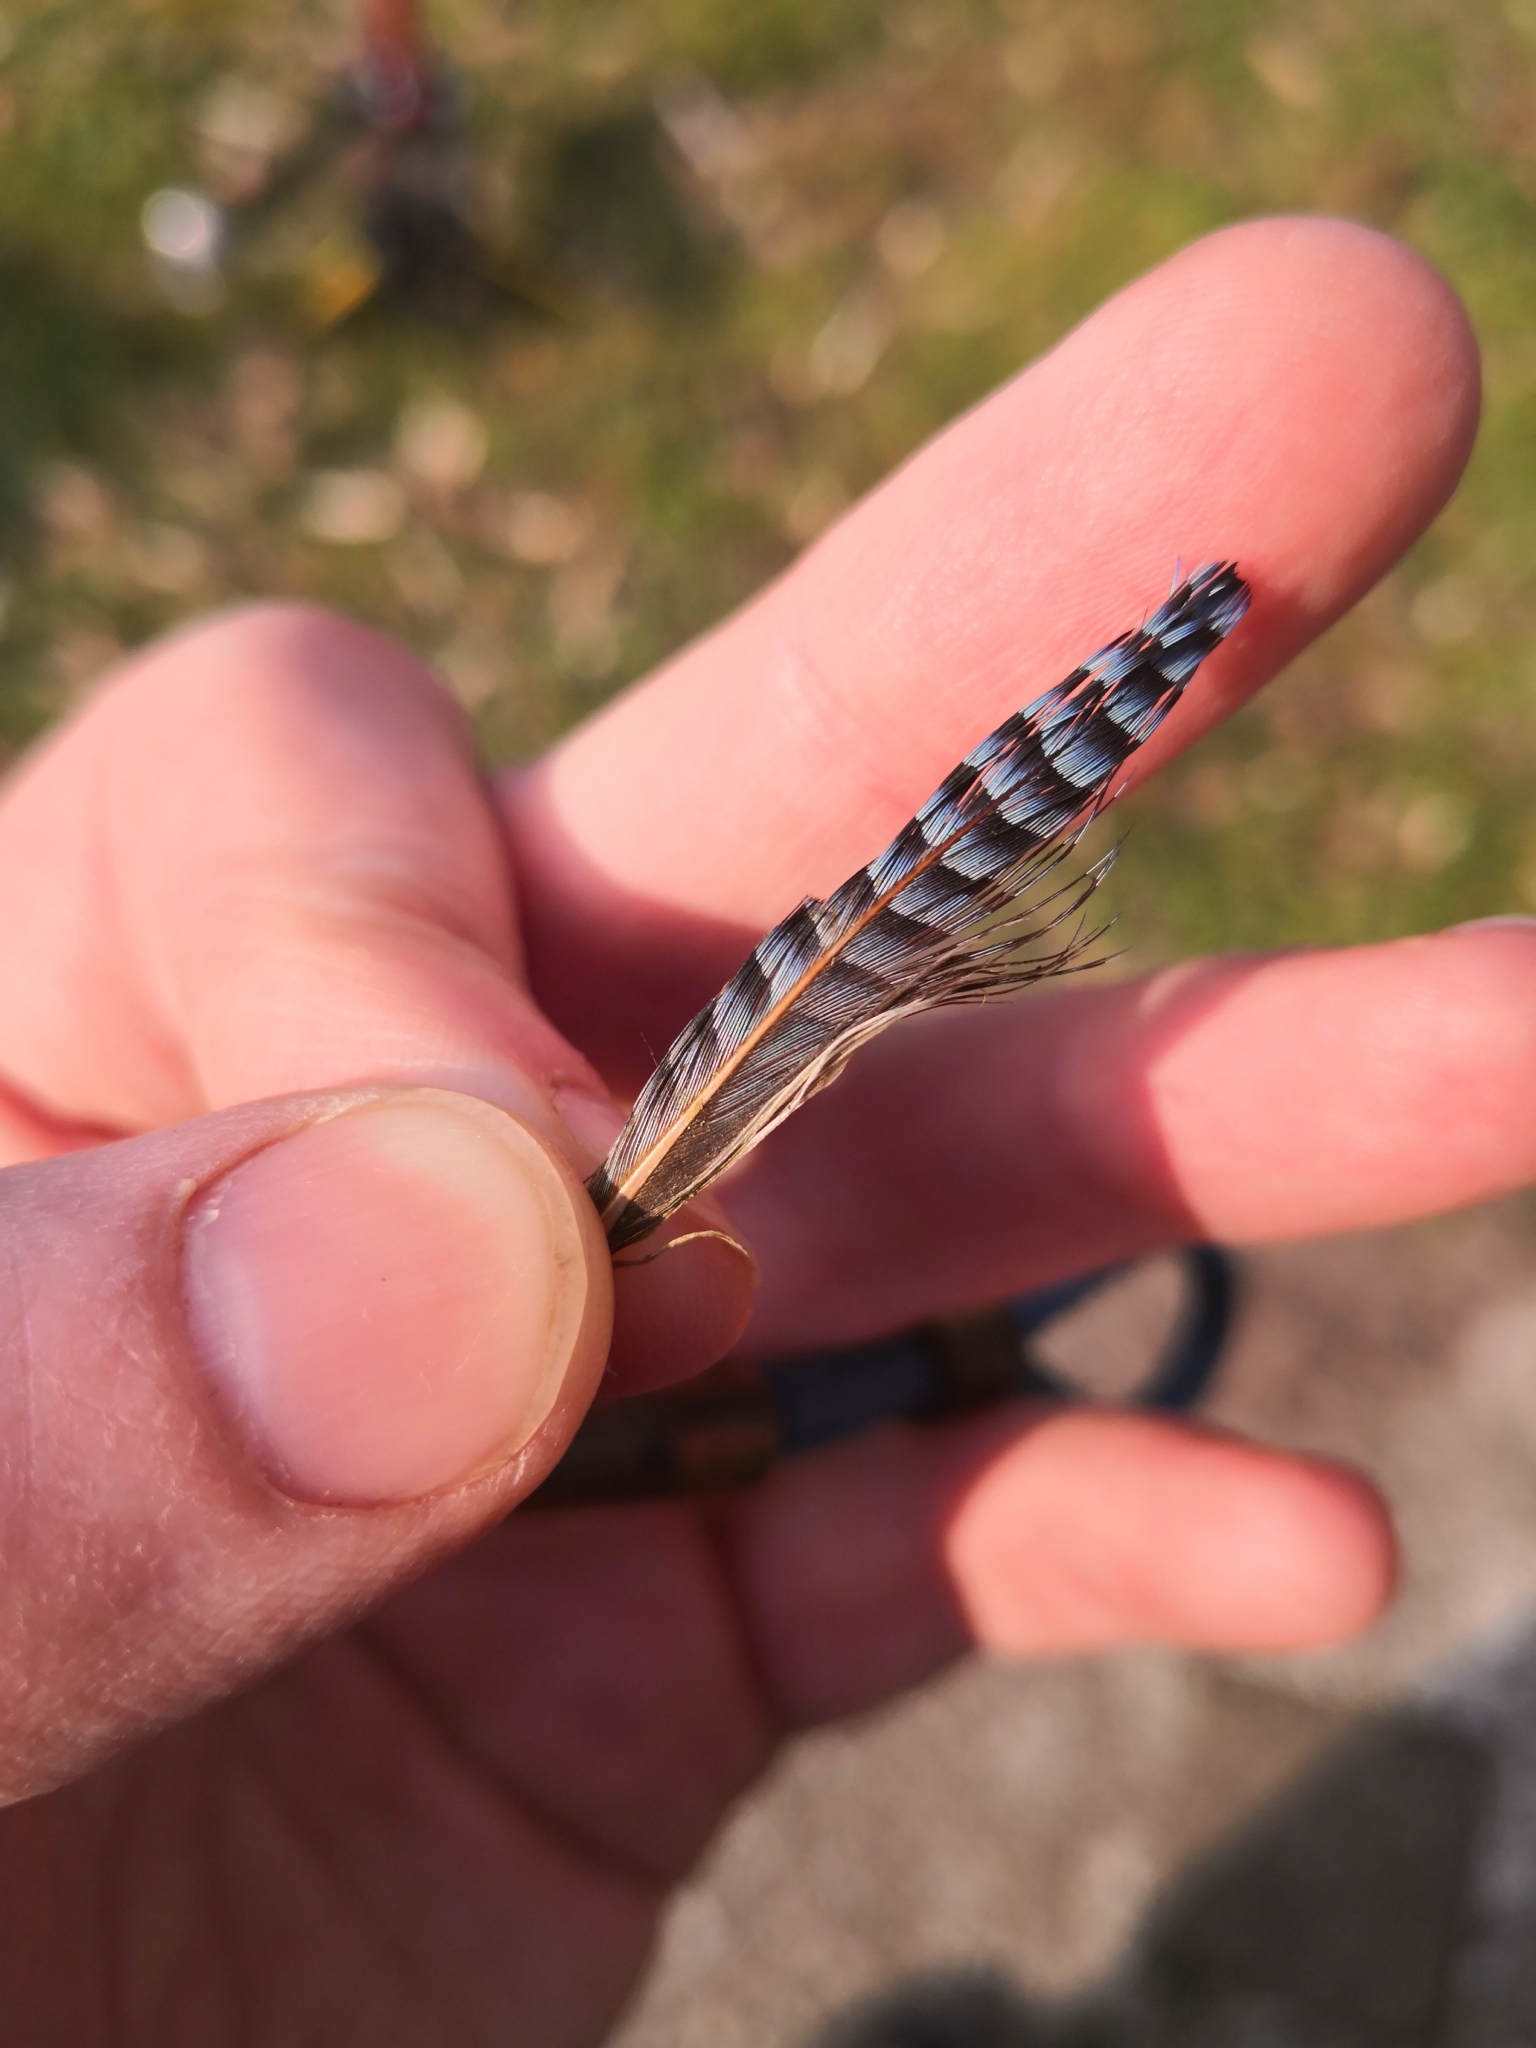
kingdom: Animalia
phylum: Chordata
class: Aves
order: Passeriformes
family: Corvidae
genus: Garrulus
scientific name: Garrulus glandarius
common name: Eurasian jay
